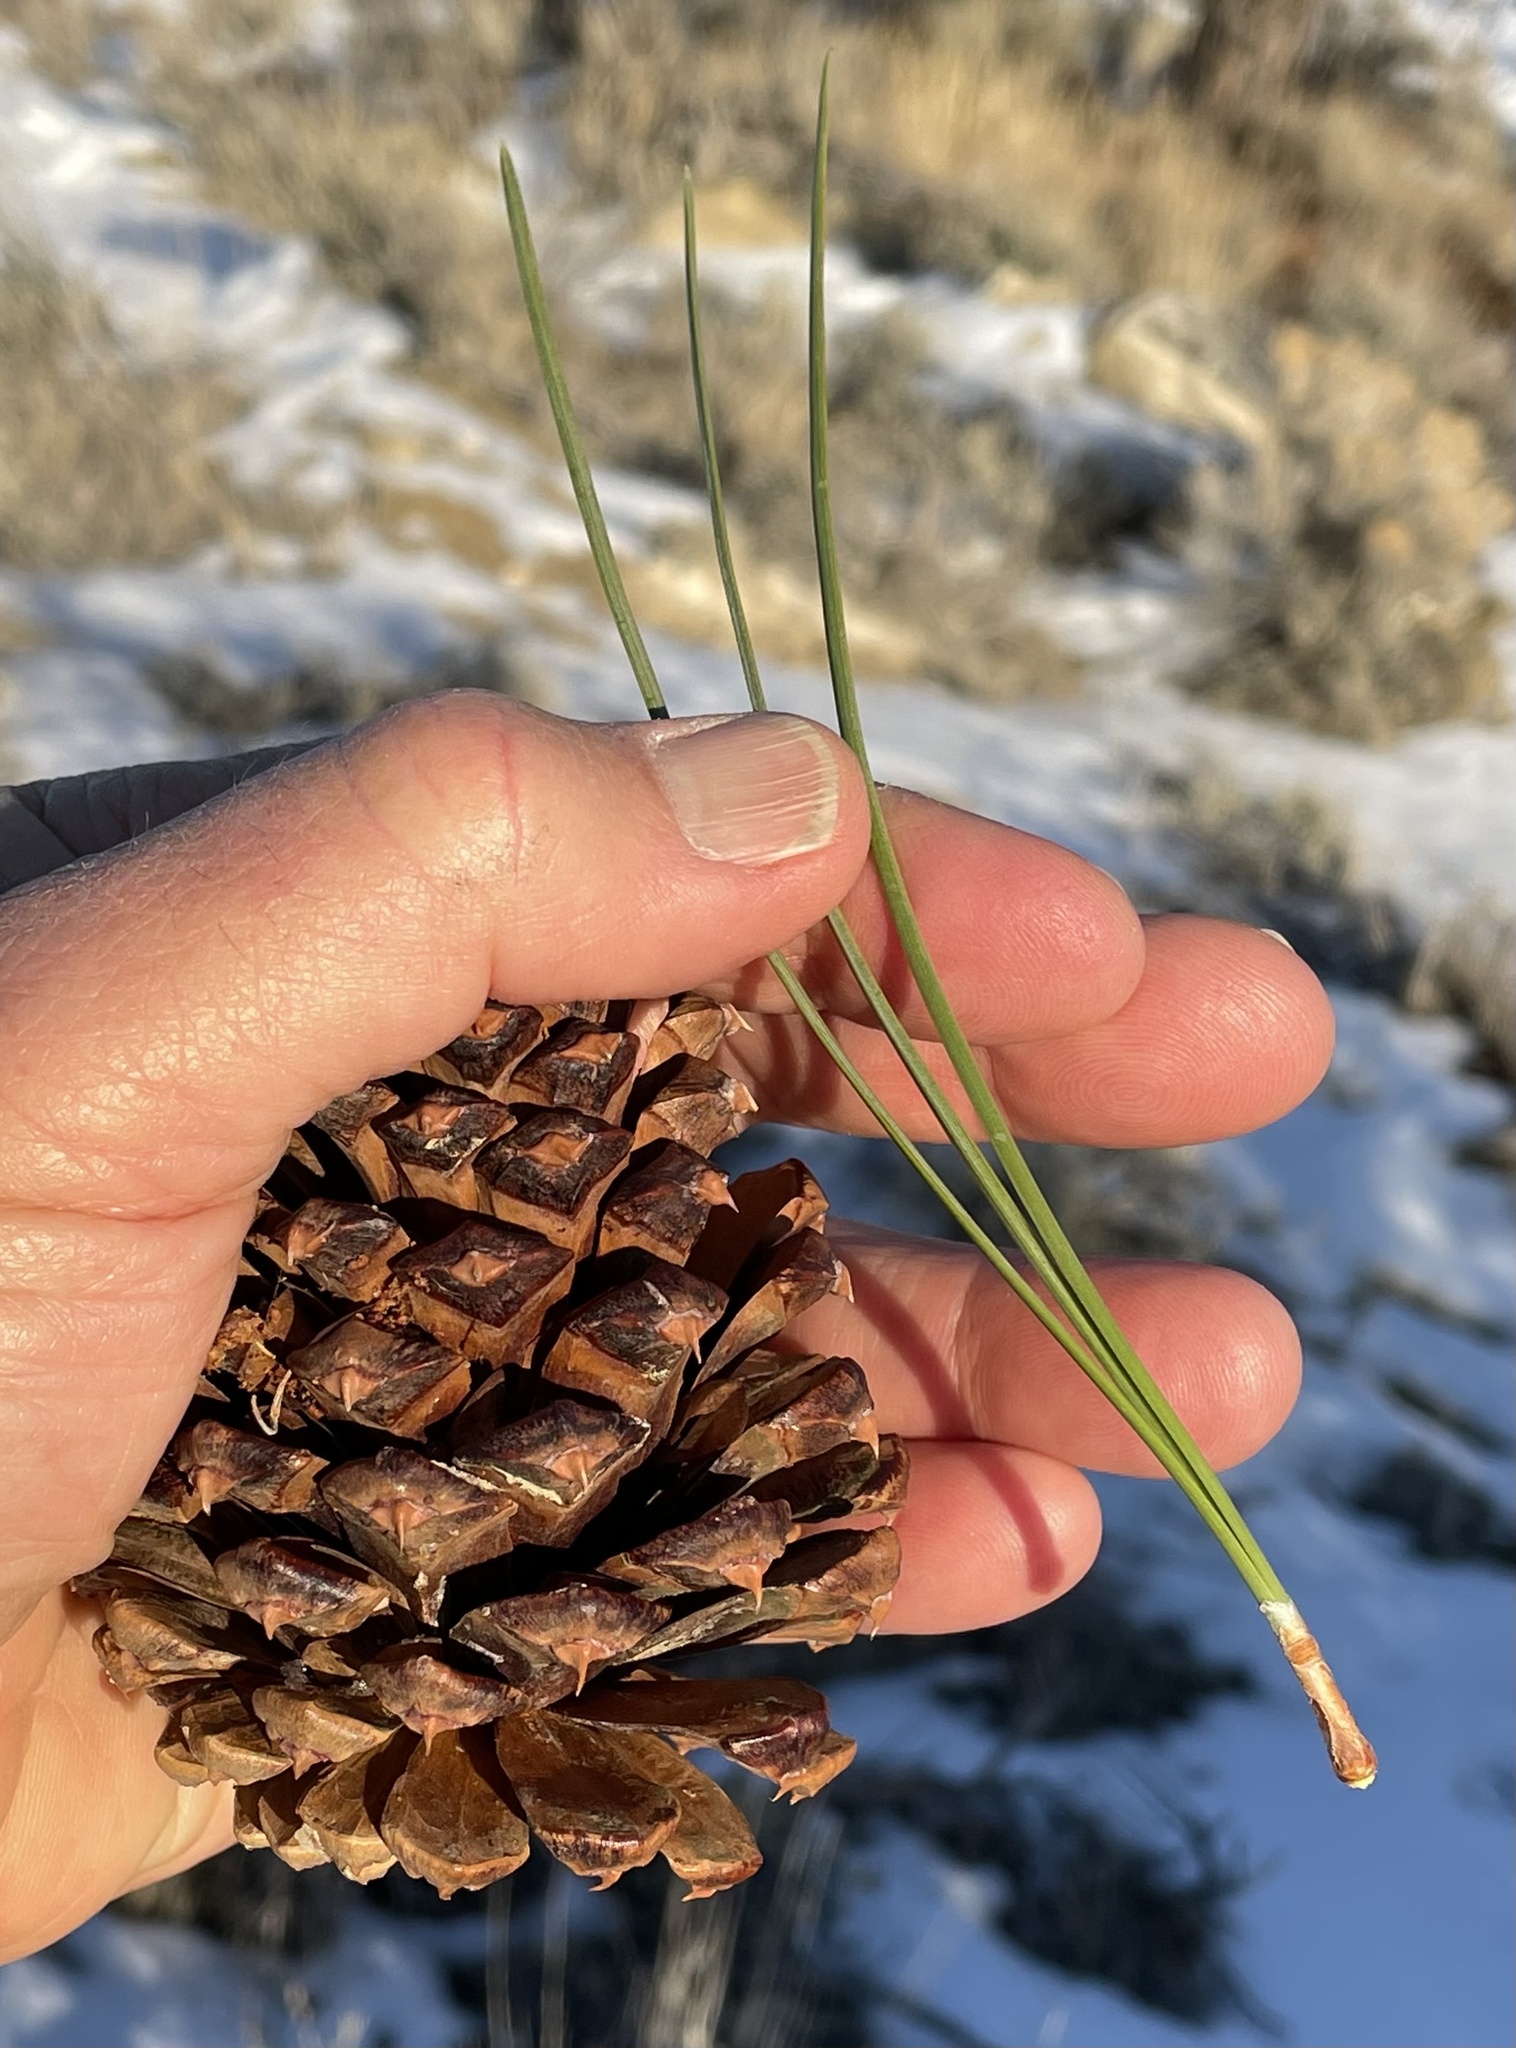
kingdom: Plantae
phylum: Tracheophyta
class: Pinopsida
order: Pinales
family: Pinaceae
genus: Pinus
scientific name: Pinus ponderosa
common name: Western yellow-pine
